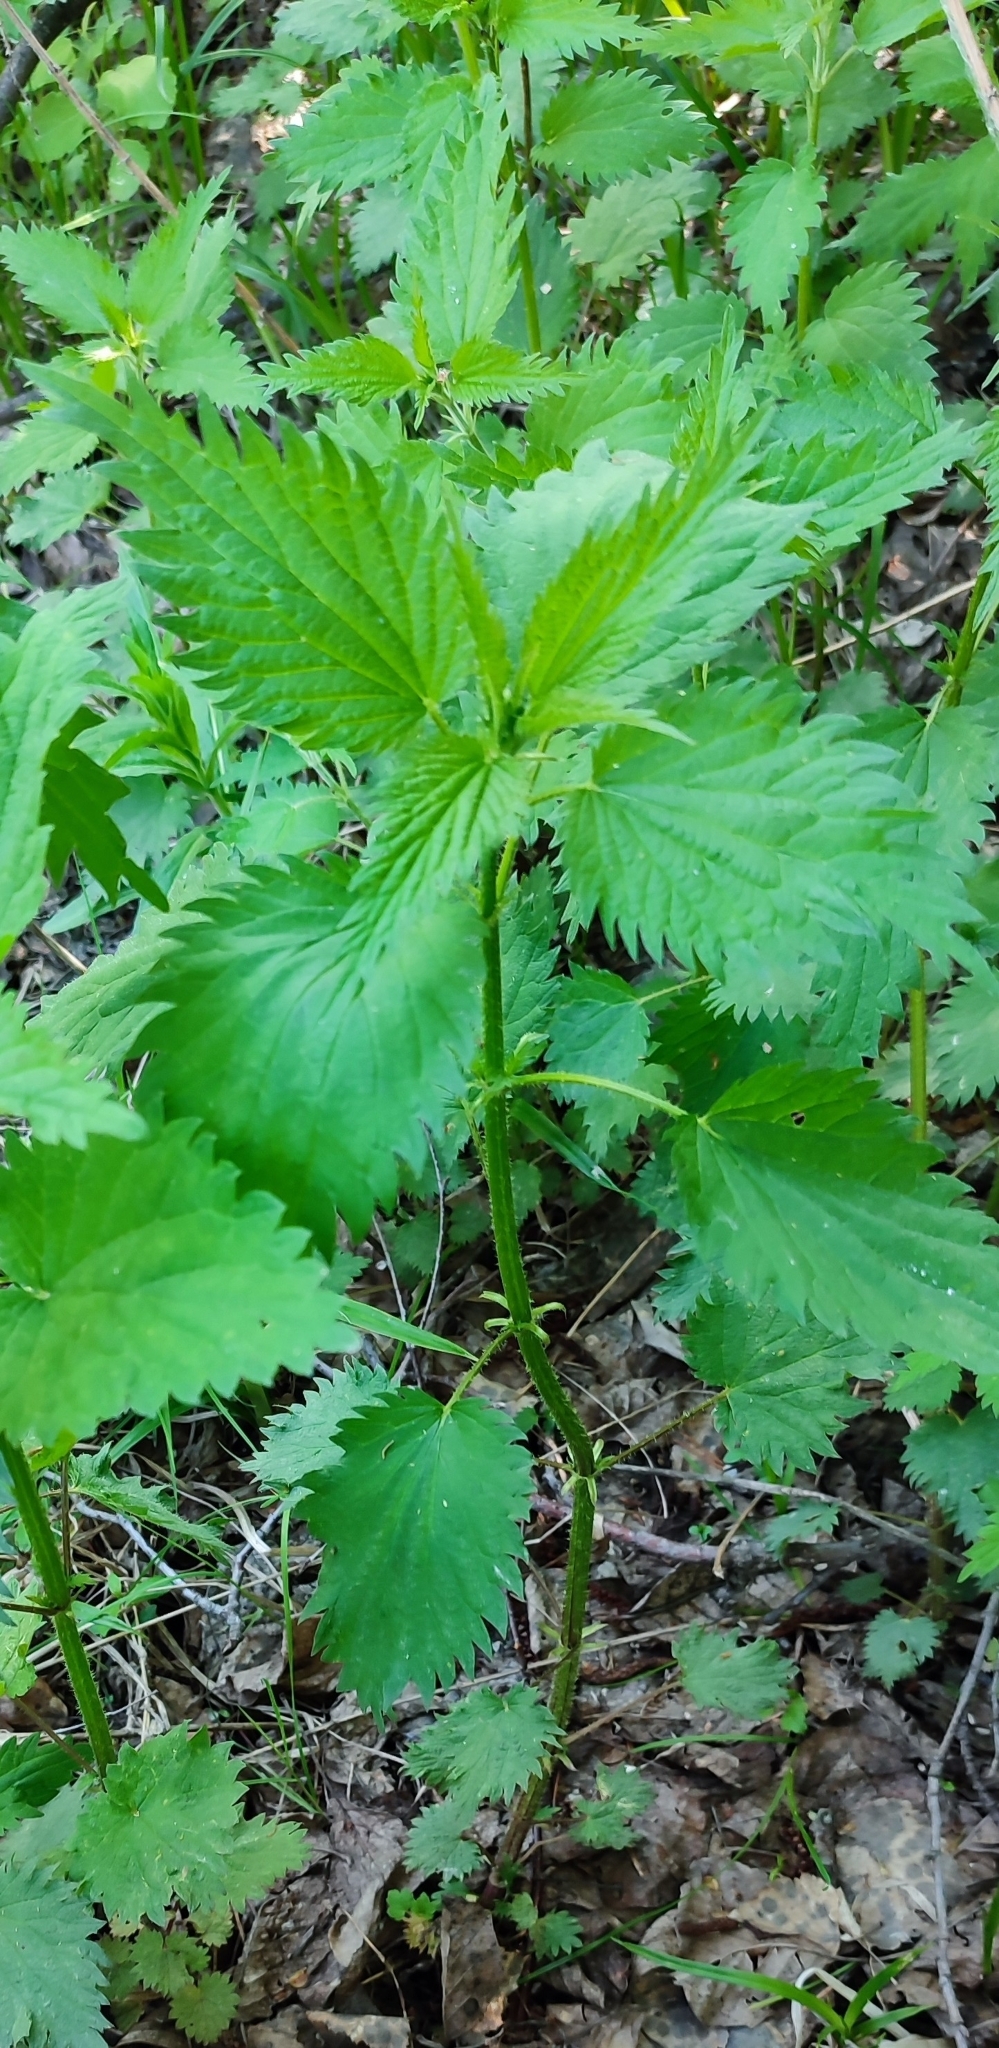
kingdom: Plantae
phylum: Tracheophyta
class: Magnoliopsida
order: Rosales
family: Urticaceae
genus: Urtica
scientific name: Urtica dioica
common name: Common nettle
